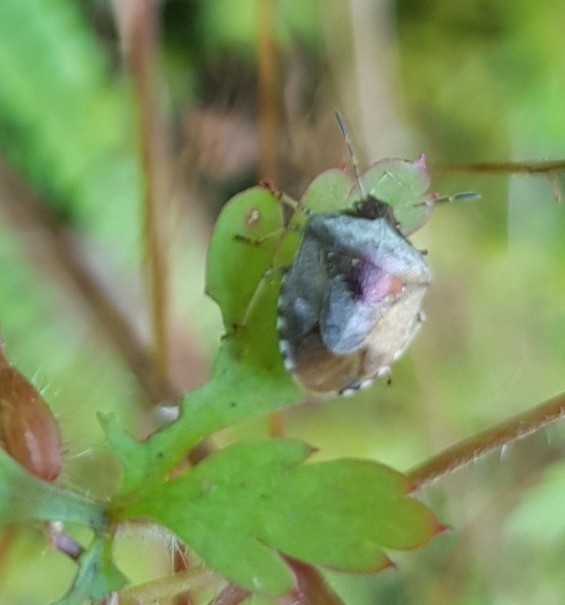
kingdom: Animalia
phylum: Arthropoda
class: Insecta
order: Hemiptera
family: Pentatomidae
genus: Eysarcoris
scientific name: Eysarcoris venustissimus
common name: Woundwort shieldbug
